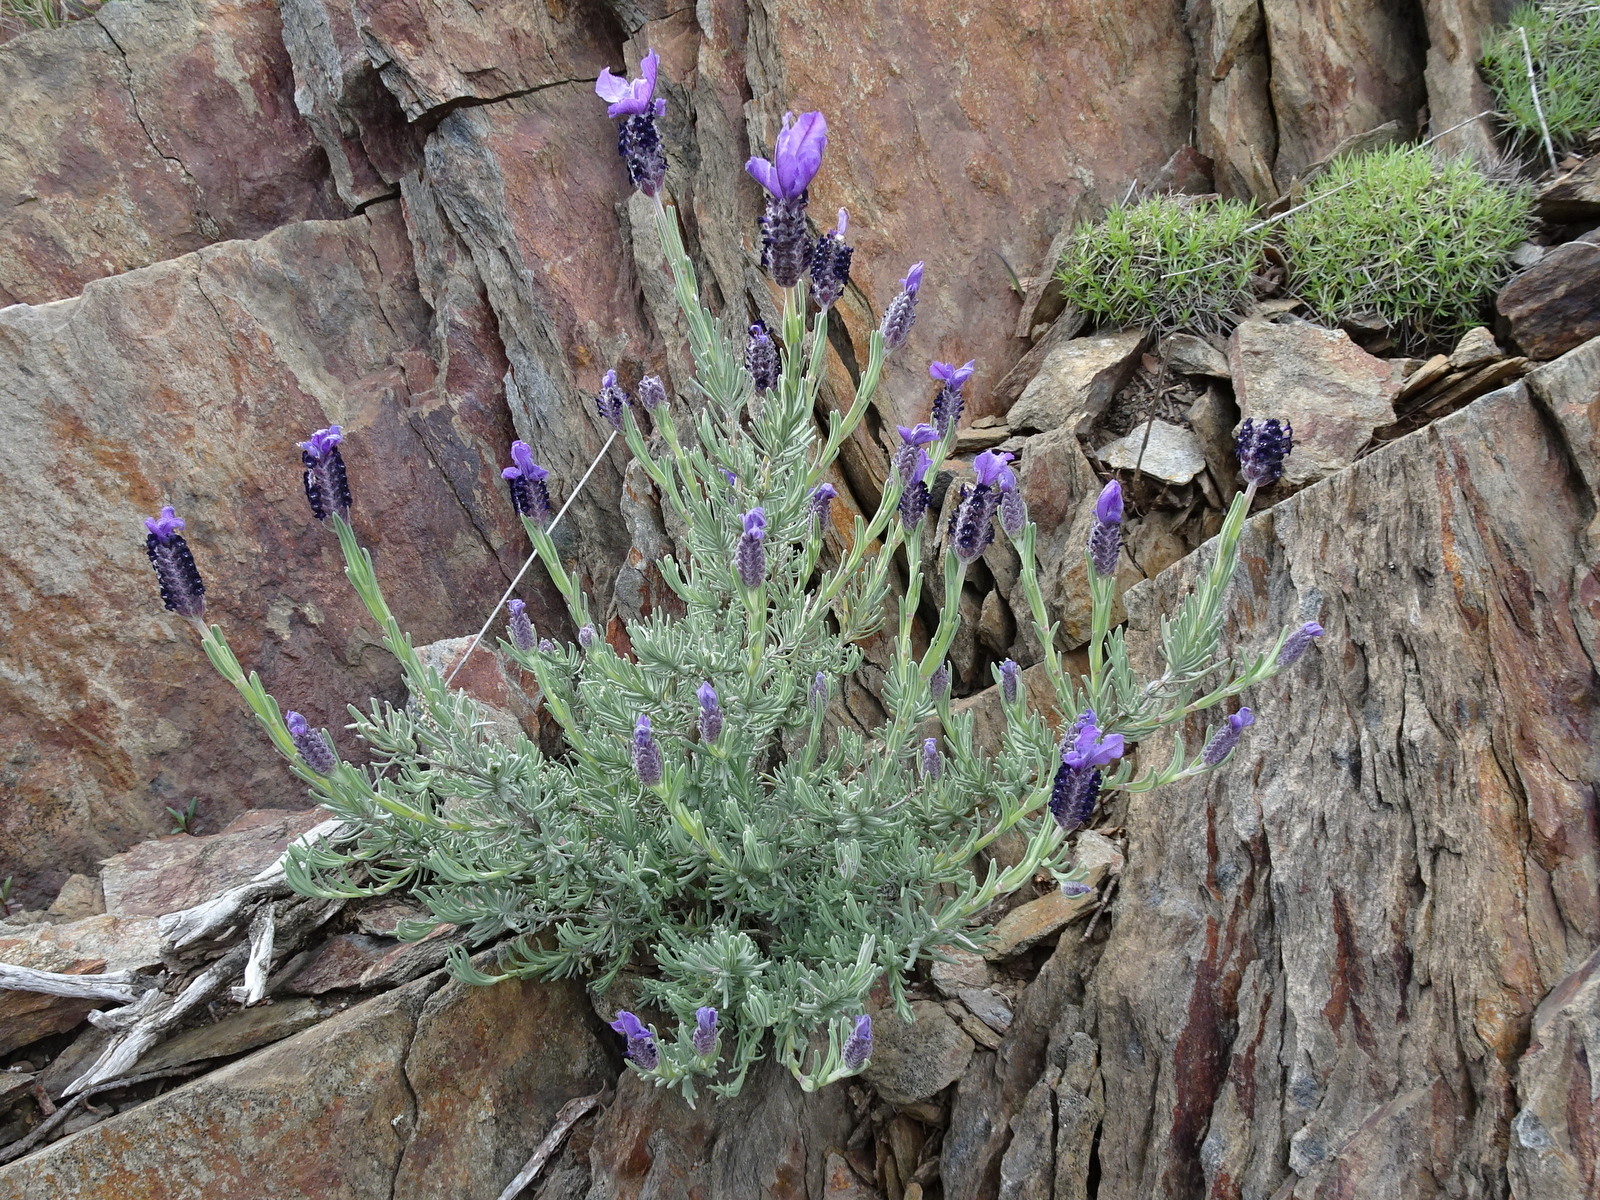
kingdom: Plantae
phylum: Tracheophyta
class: Magnoliopsida
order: Lamiales
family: Lamiaceae
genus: Lavandula
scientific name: Lavandula stoechas
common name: French lavender
